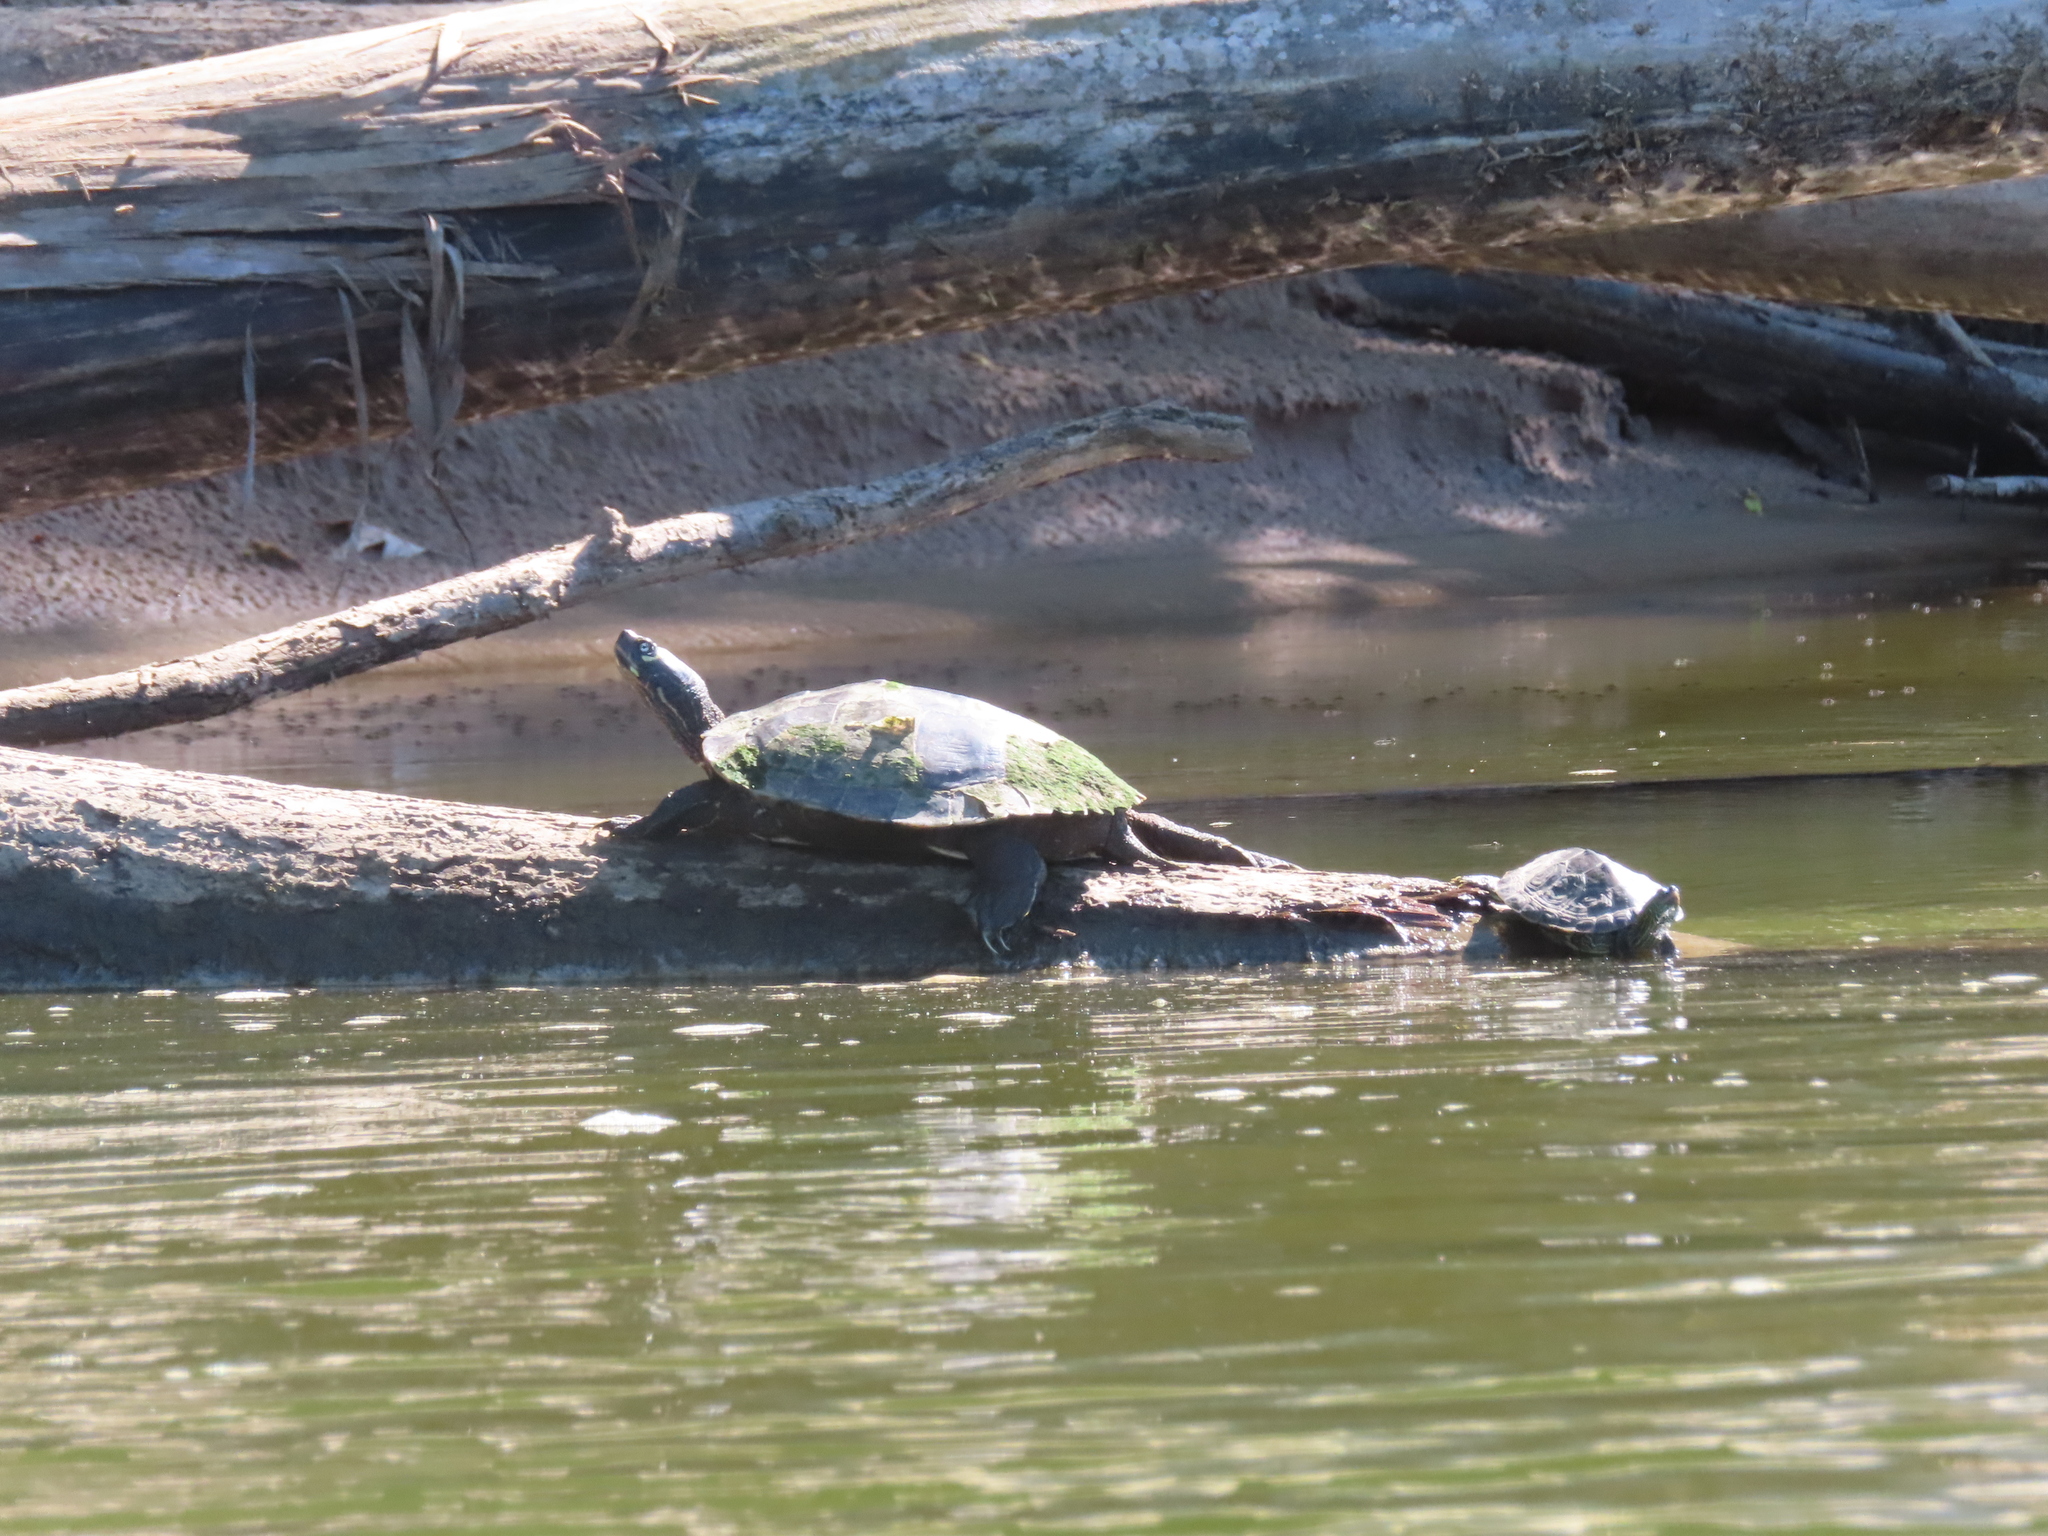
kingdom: Animalia
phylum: Chordata
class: Testudines
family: Emydidae
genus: Graptemys
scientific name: Graptemys pseudogeographica
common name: False map turtle
